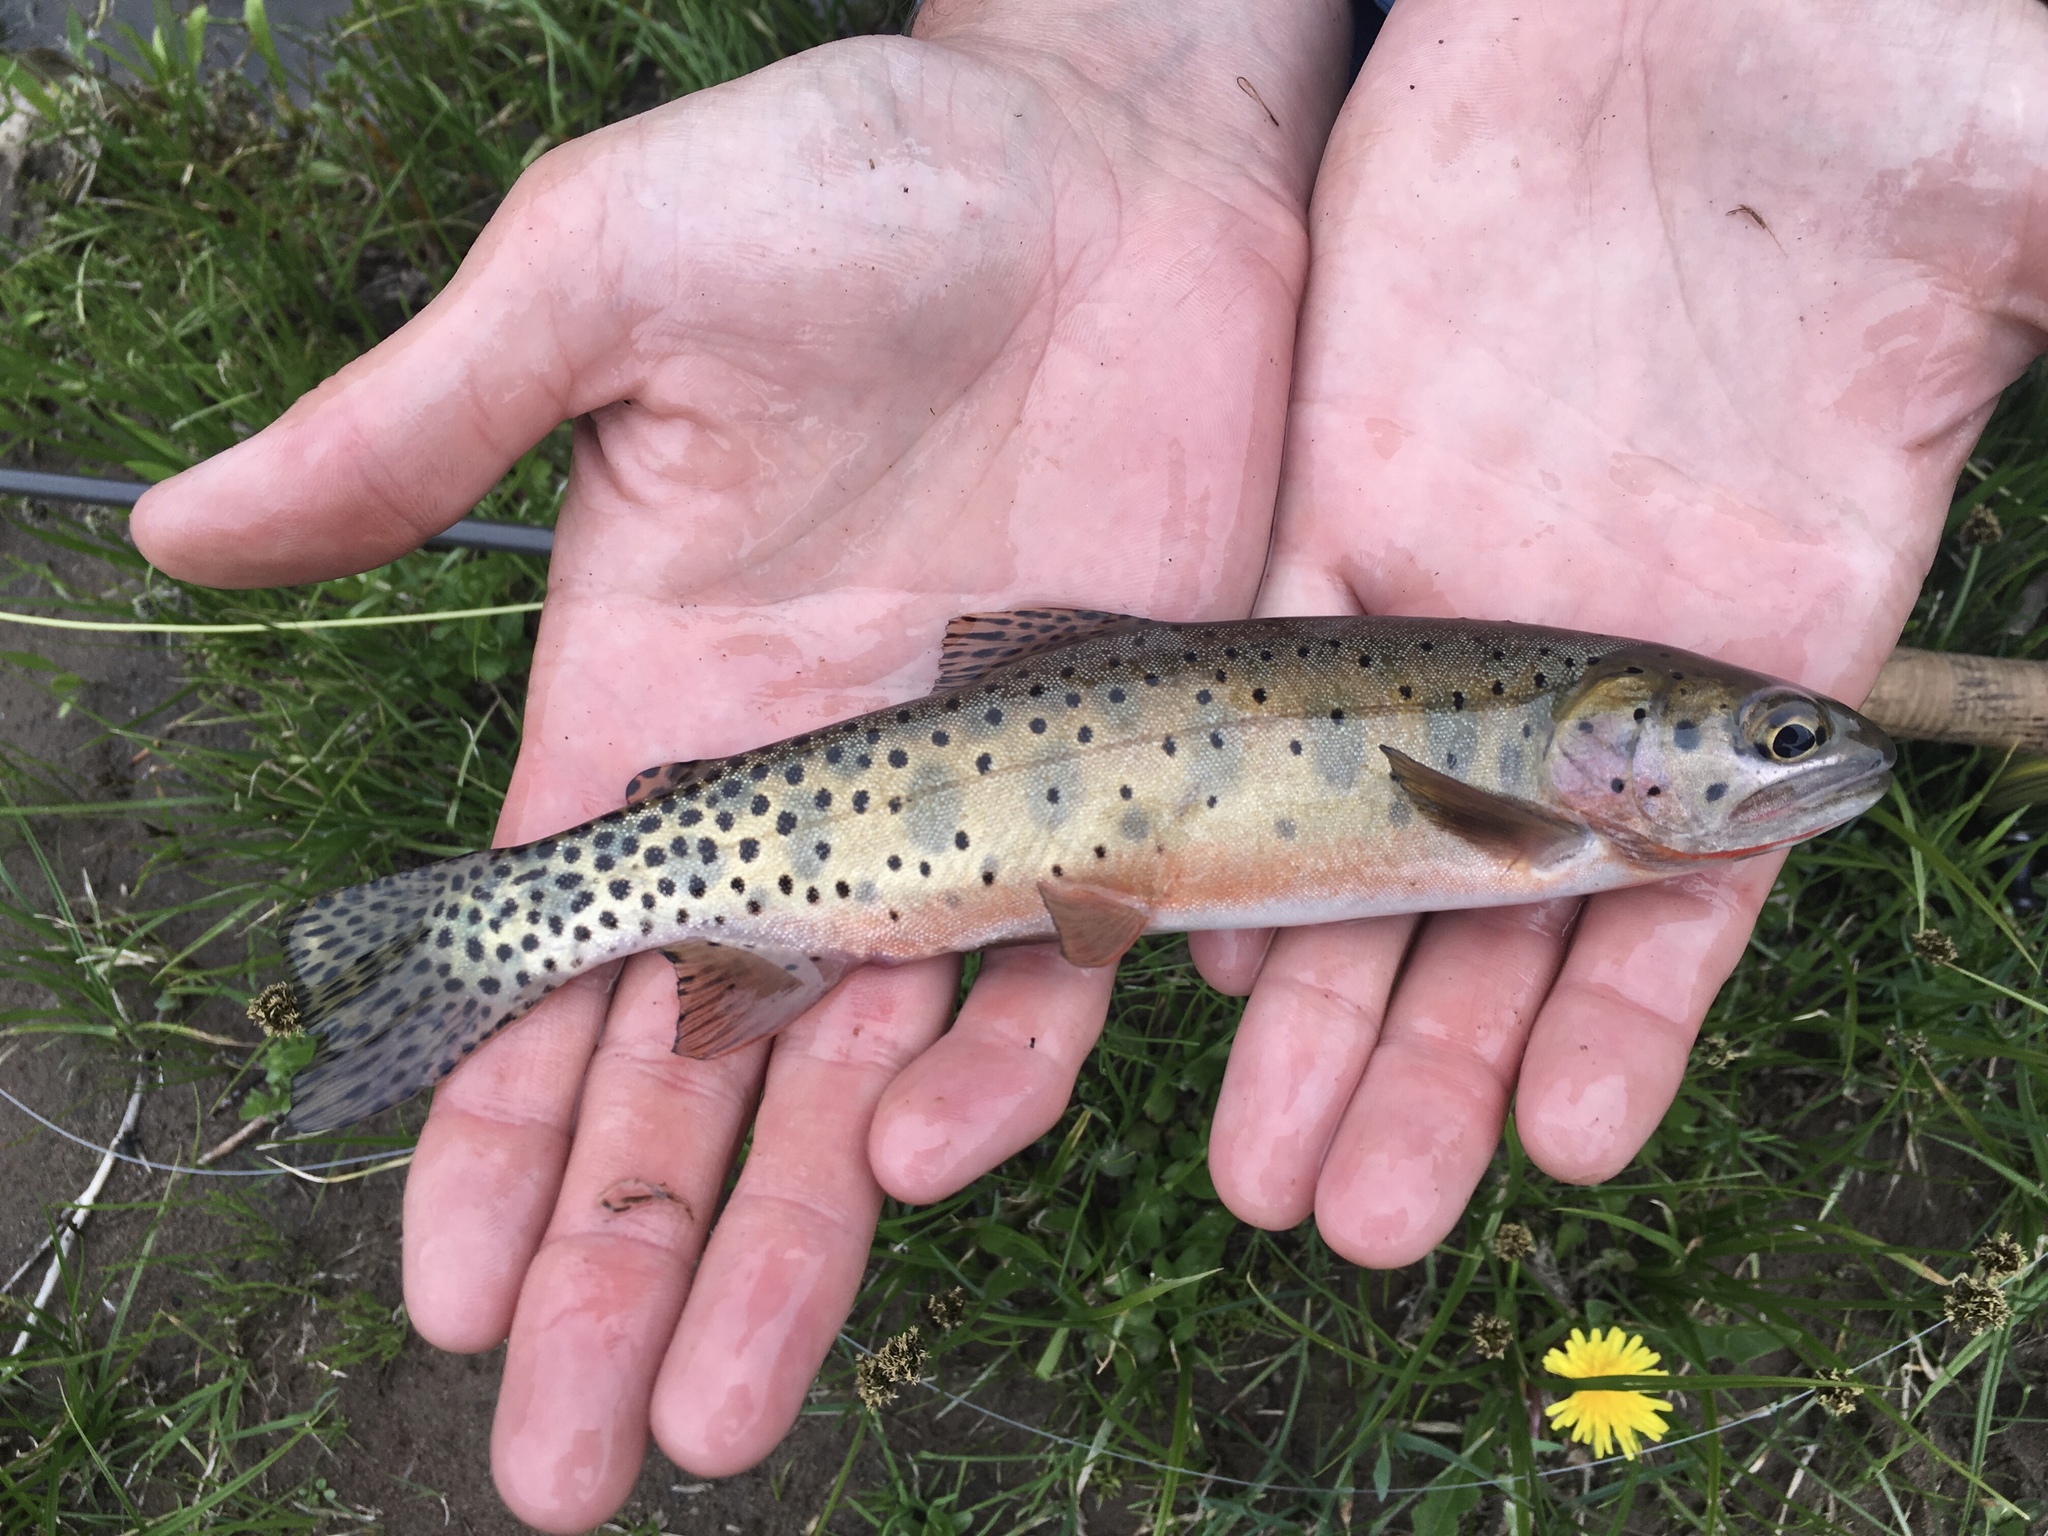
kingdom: Animalia
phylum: Chordata
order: Salmoniformes
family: Salmonidae
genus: Oncorhynchus
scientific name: Oncorhynchus virginalis
